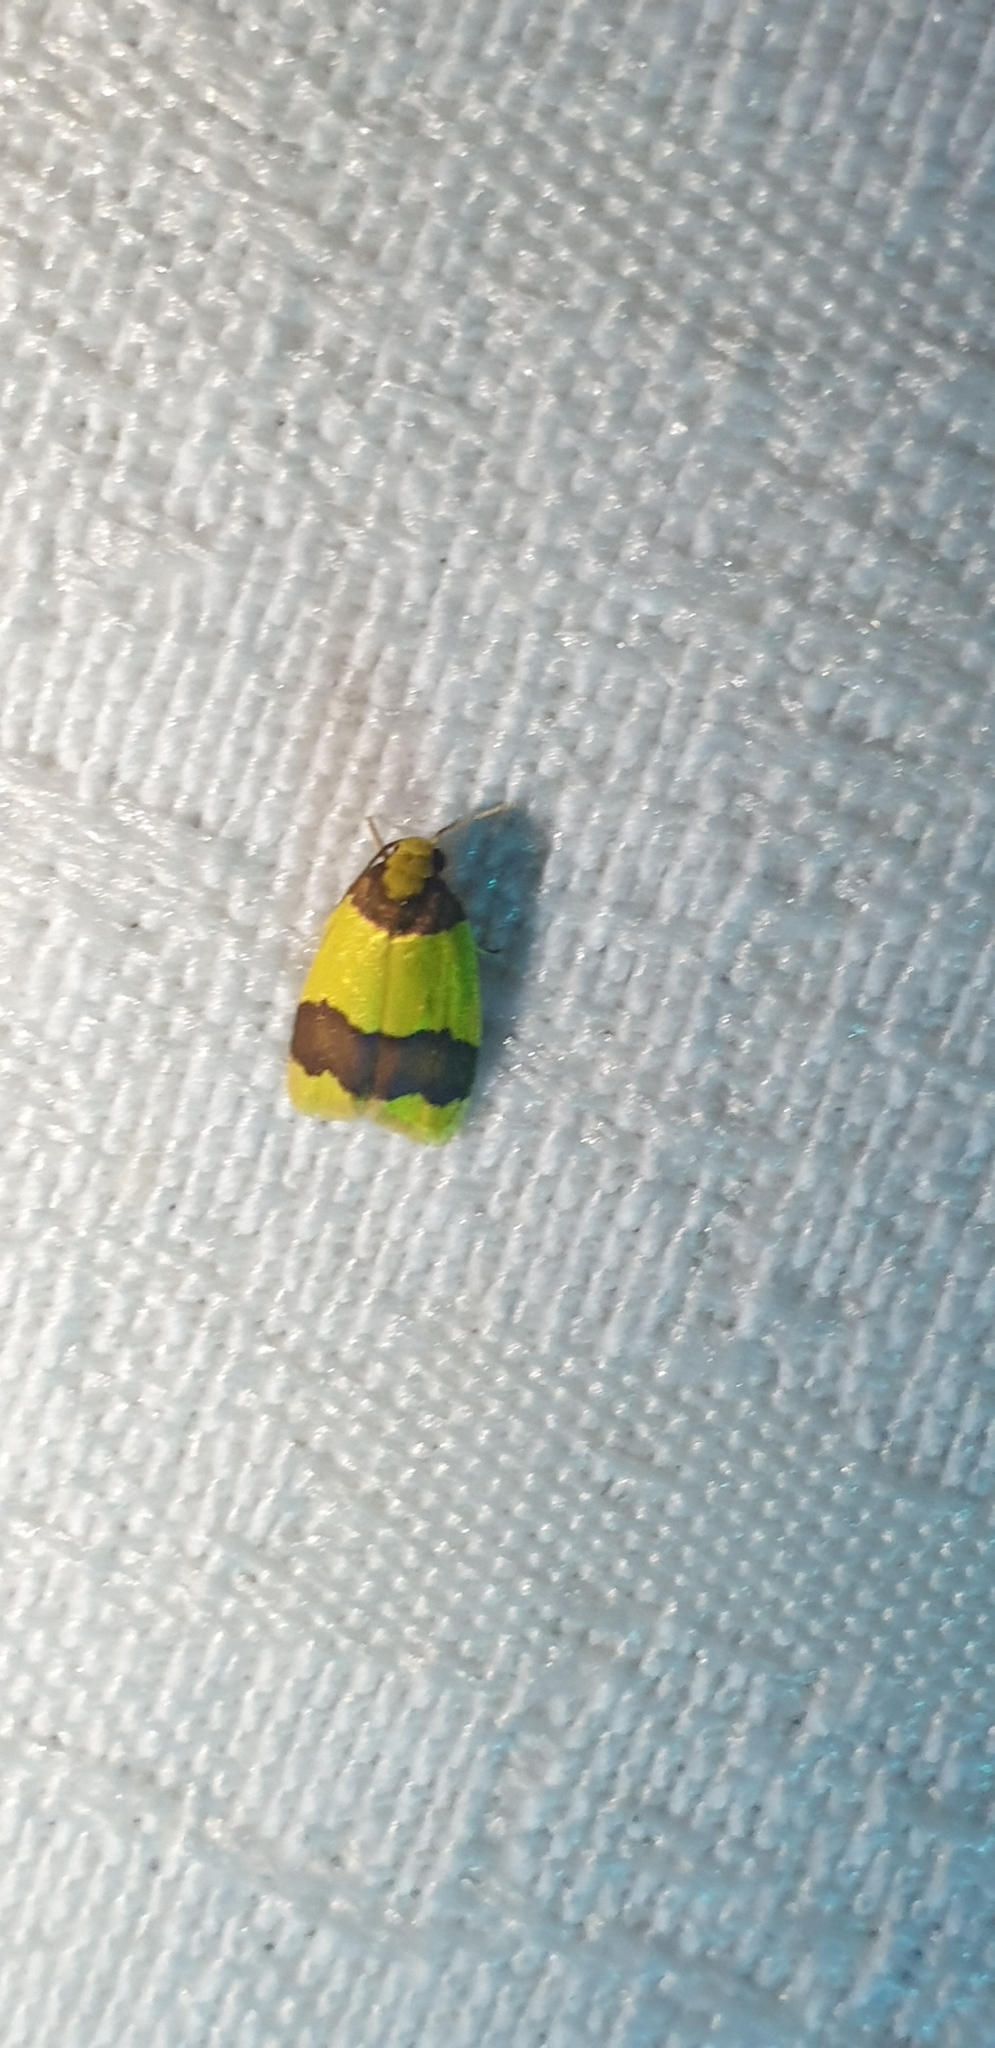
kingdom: Animalia
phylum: Arthropoda
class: Insecta
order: Lepidoptera
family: Erebidae
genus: Heterallactis
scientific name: Heterallactis microchrysa
